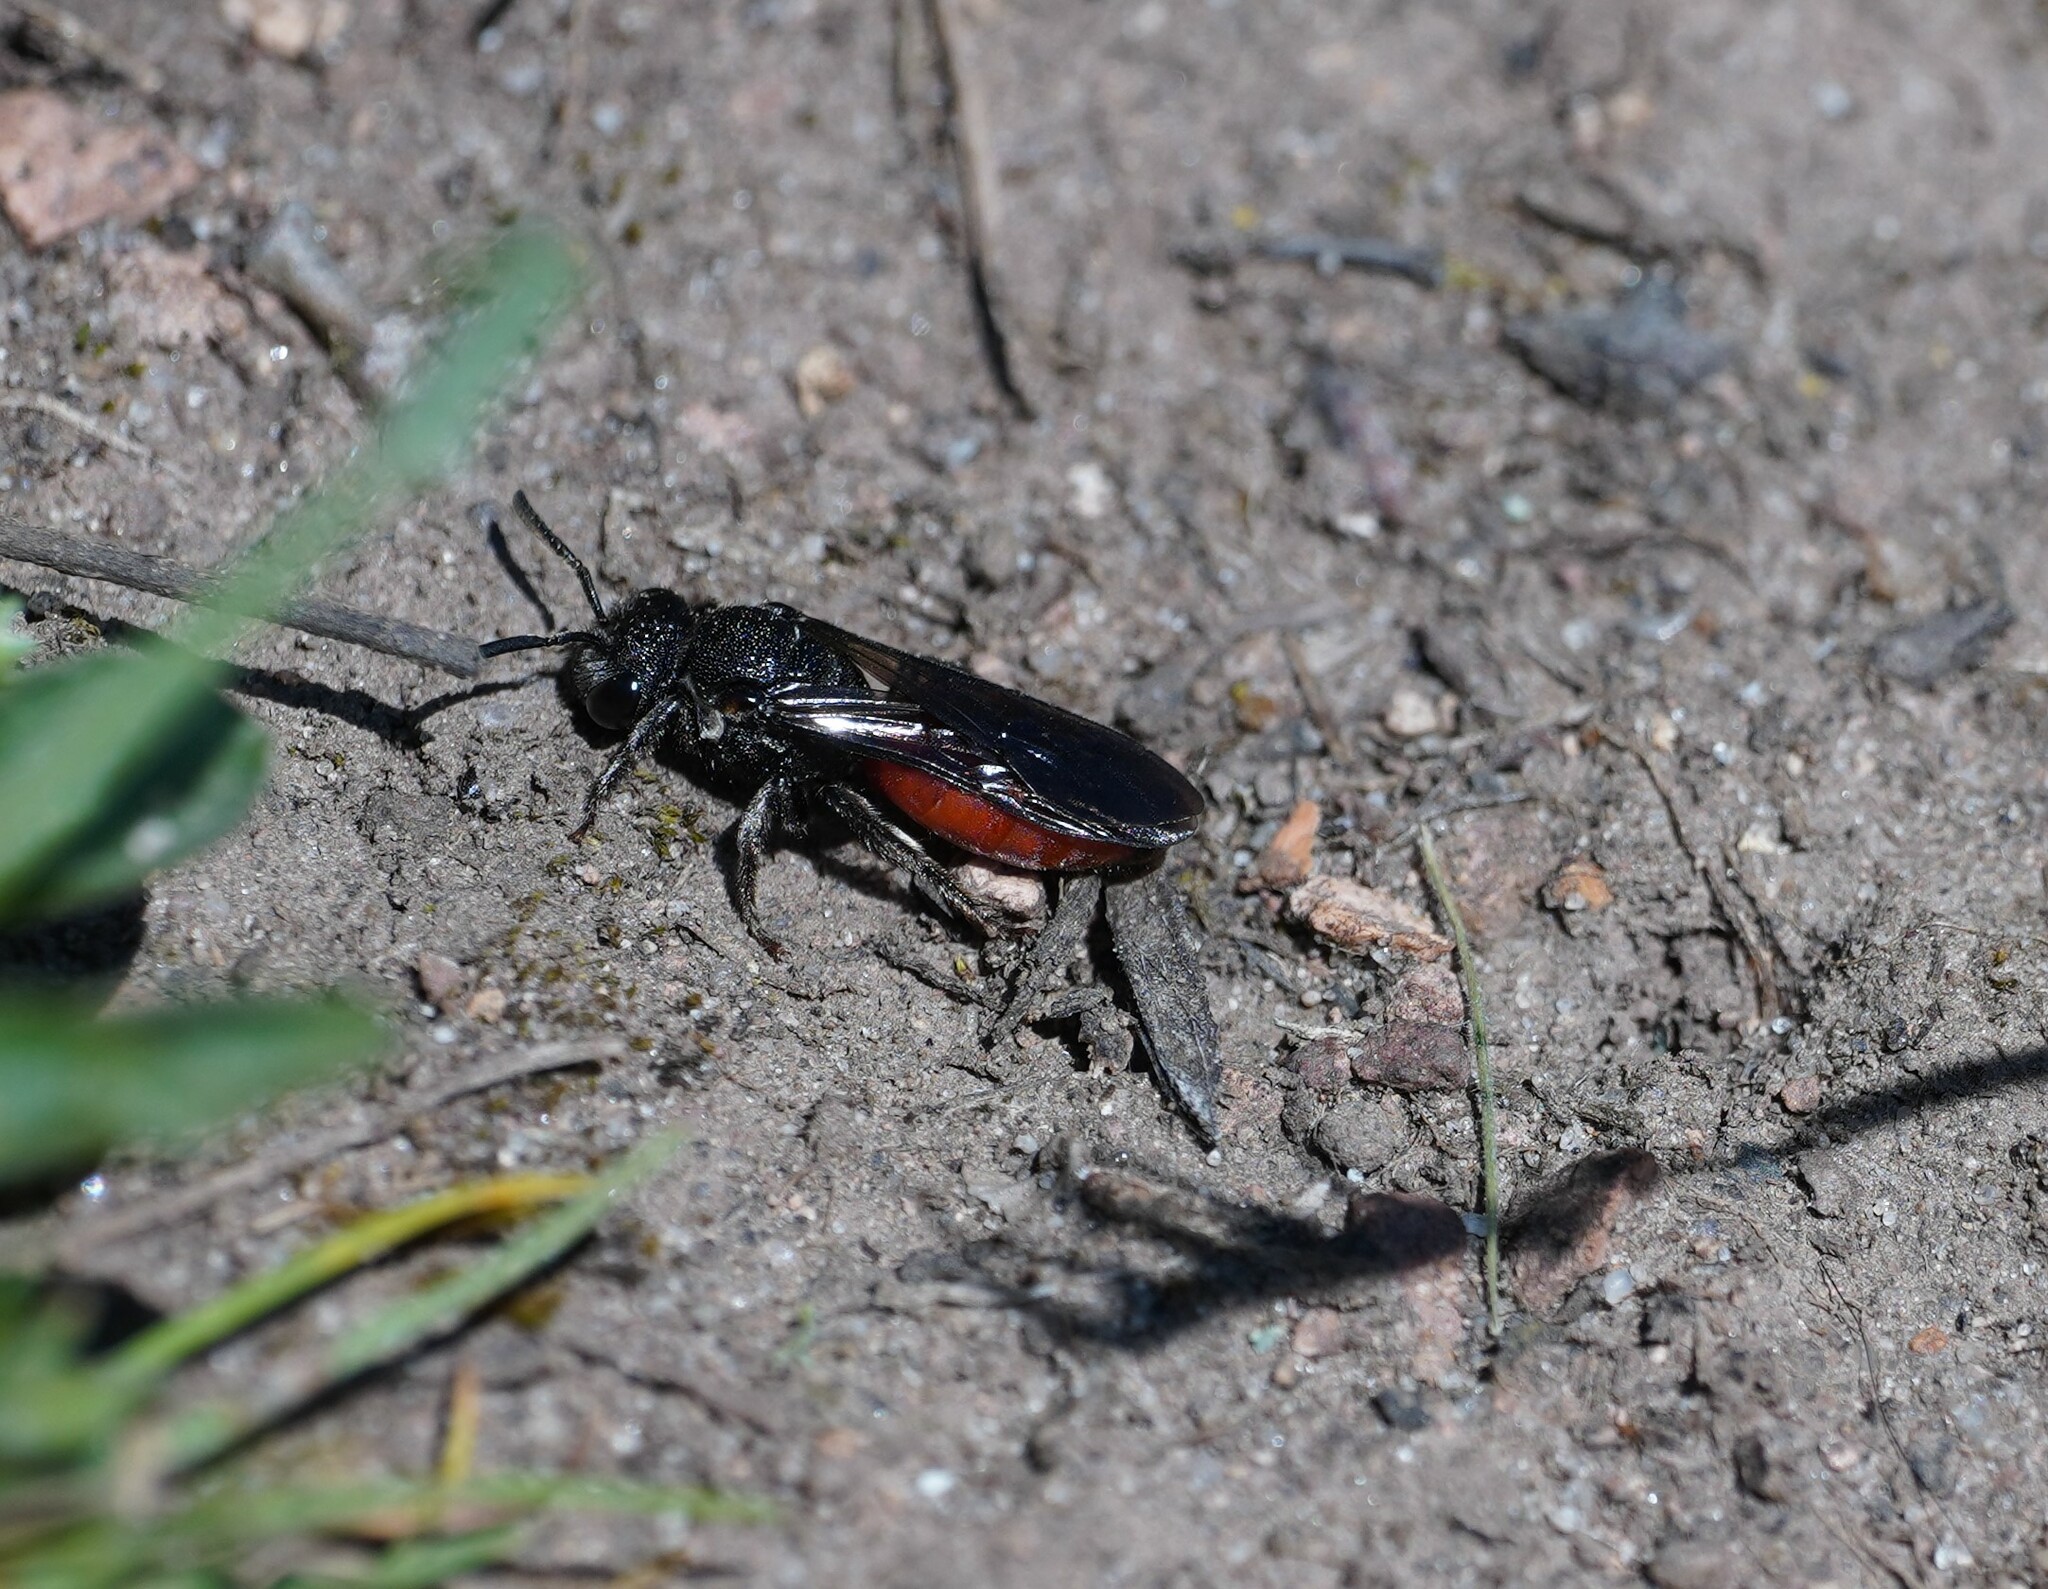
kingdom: Animalia
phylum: Arthropoda
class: Insecta
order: Hymenoptera
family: Halictidae
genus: Sphecodes
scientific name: Sphecodes albilabris
